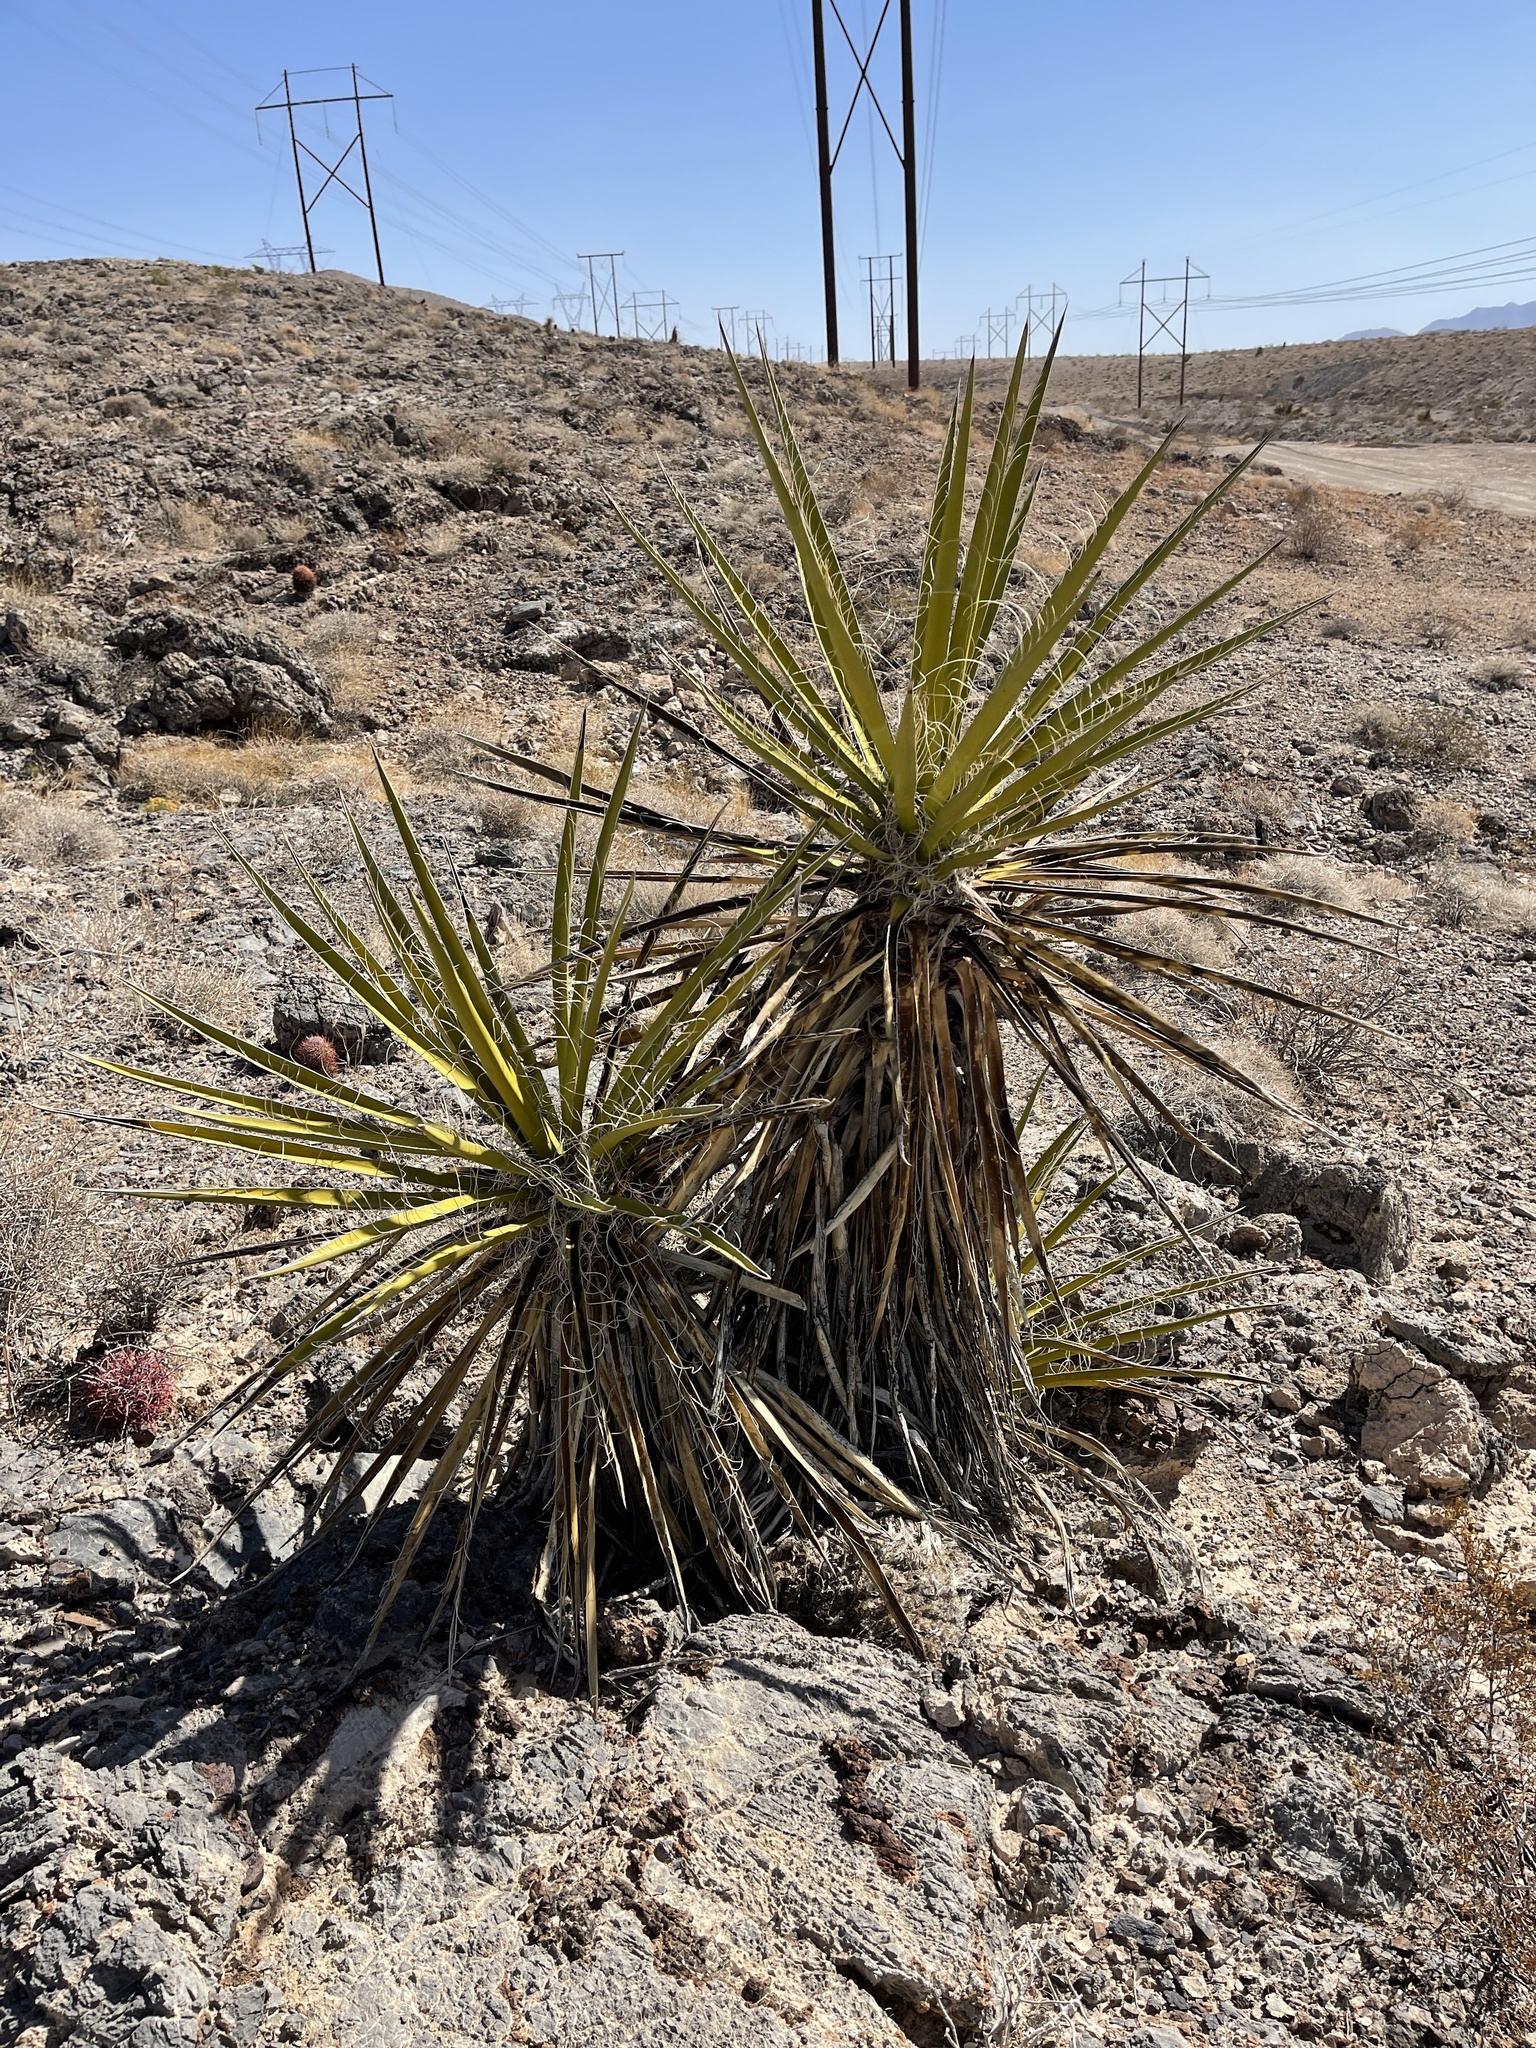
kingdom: Plantae
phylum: Tracheophyta
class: Liliopsida
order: Asparagales
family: Asparagaceae
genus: Yucca
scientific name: Yucca schidigera
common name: Mojave yucca
